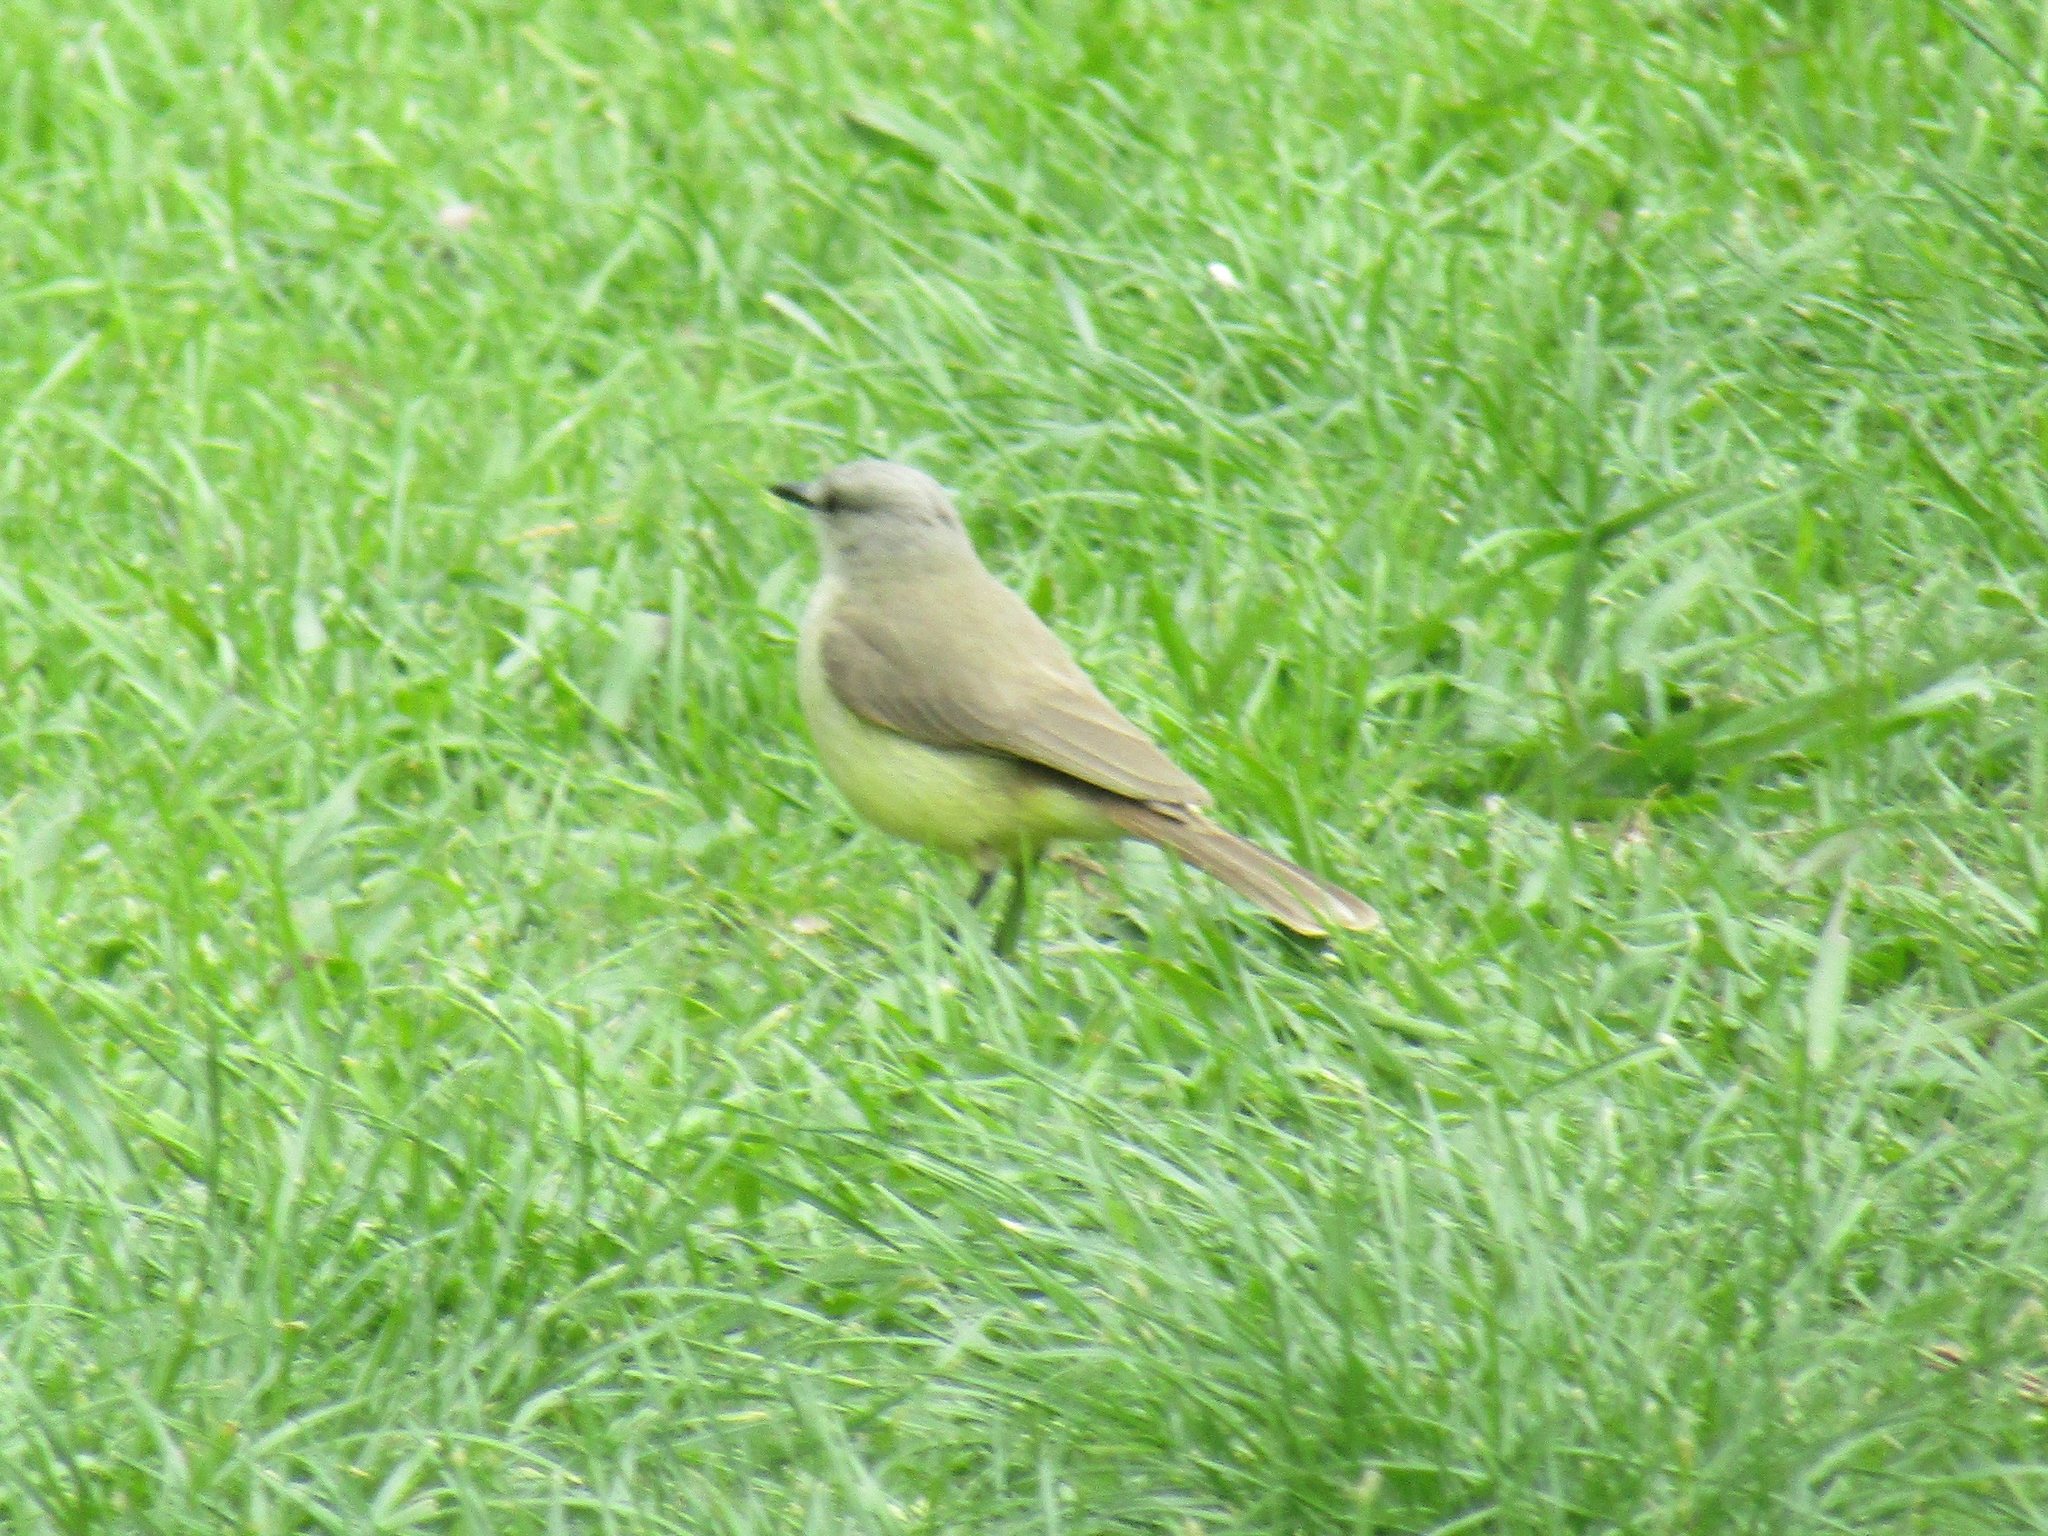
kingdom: Animalia
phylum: Chordata
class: Aves
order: Passeriformes
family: Tyrannidae
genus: Machetornis
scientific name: Machetornis rixosa
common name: Cattle tyrant
